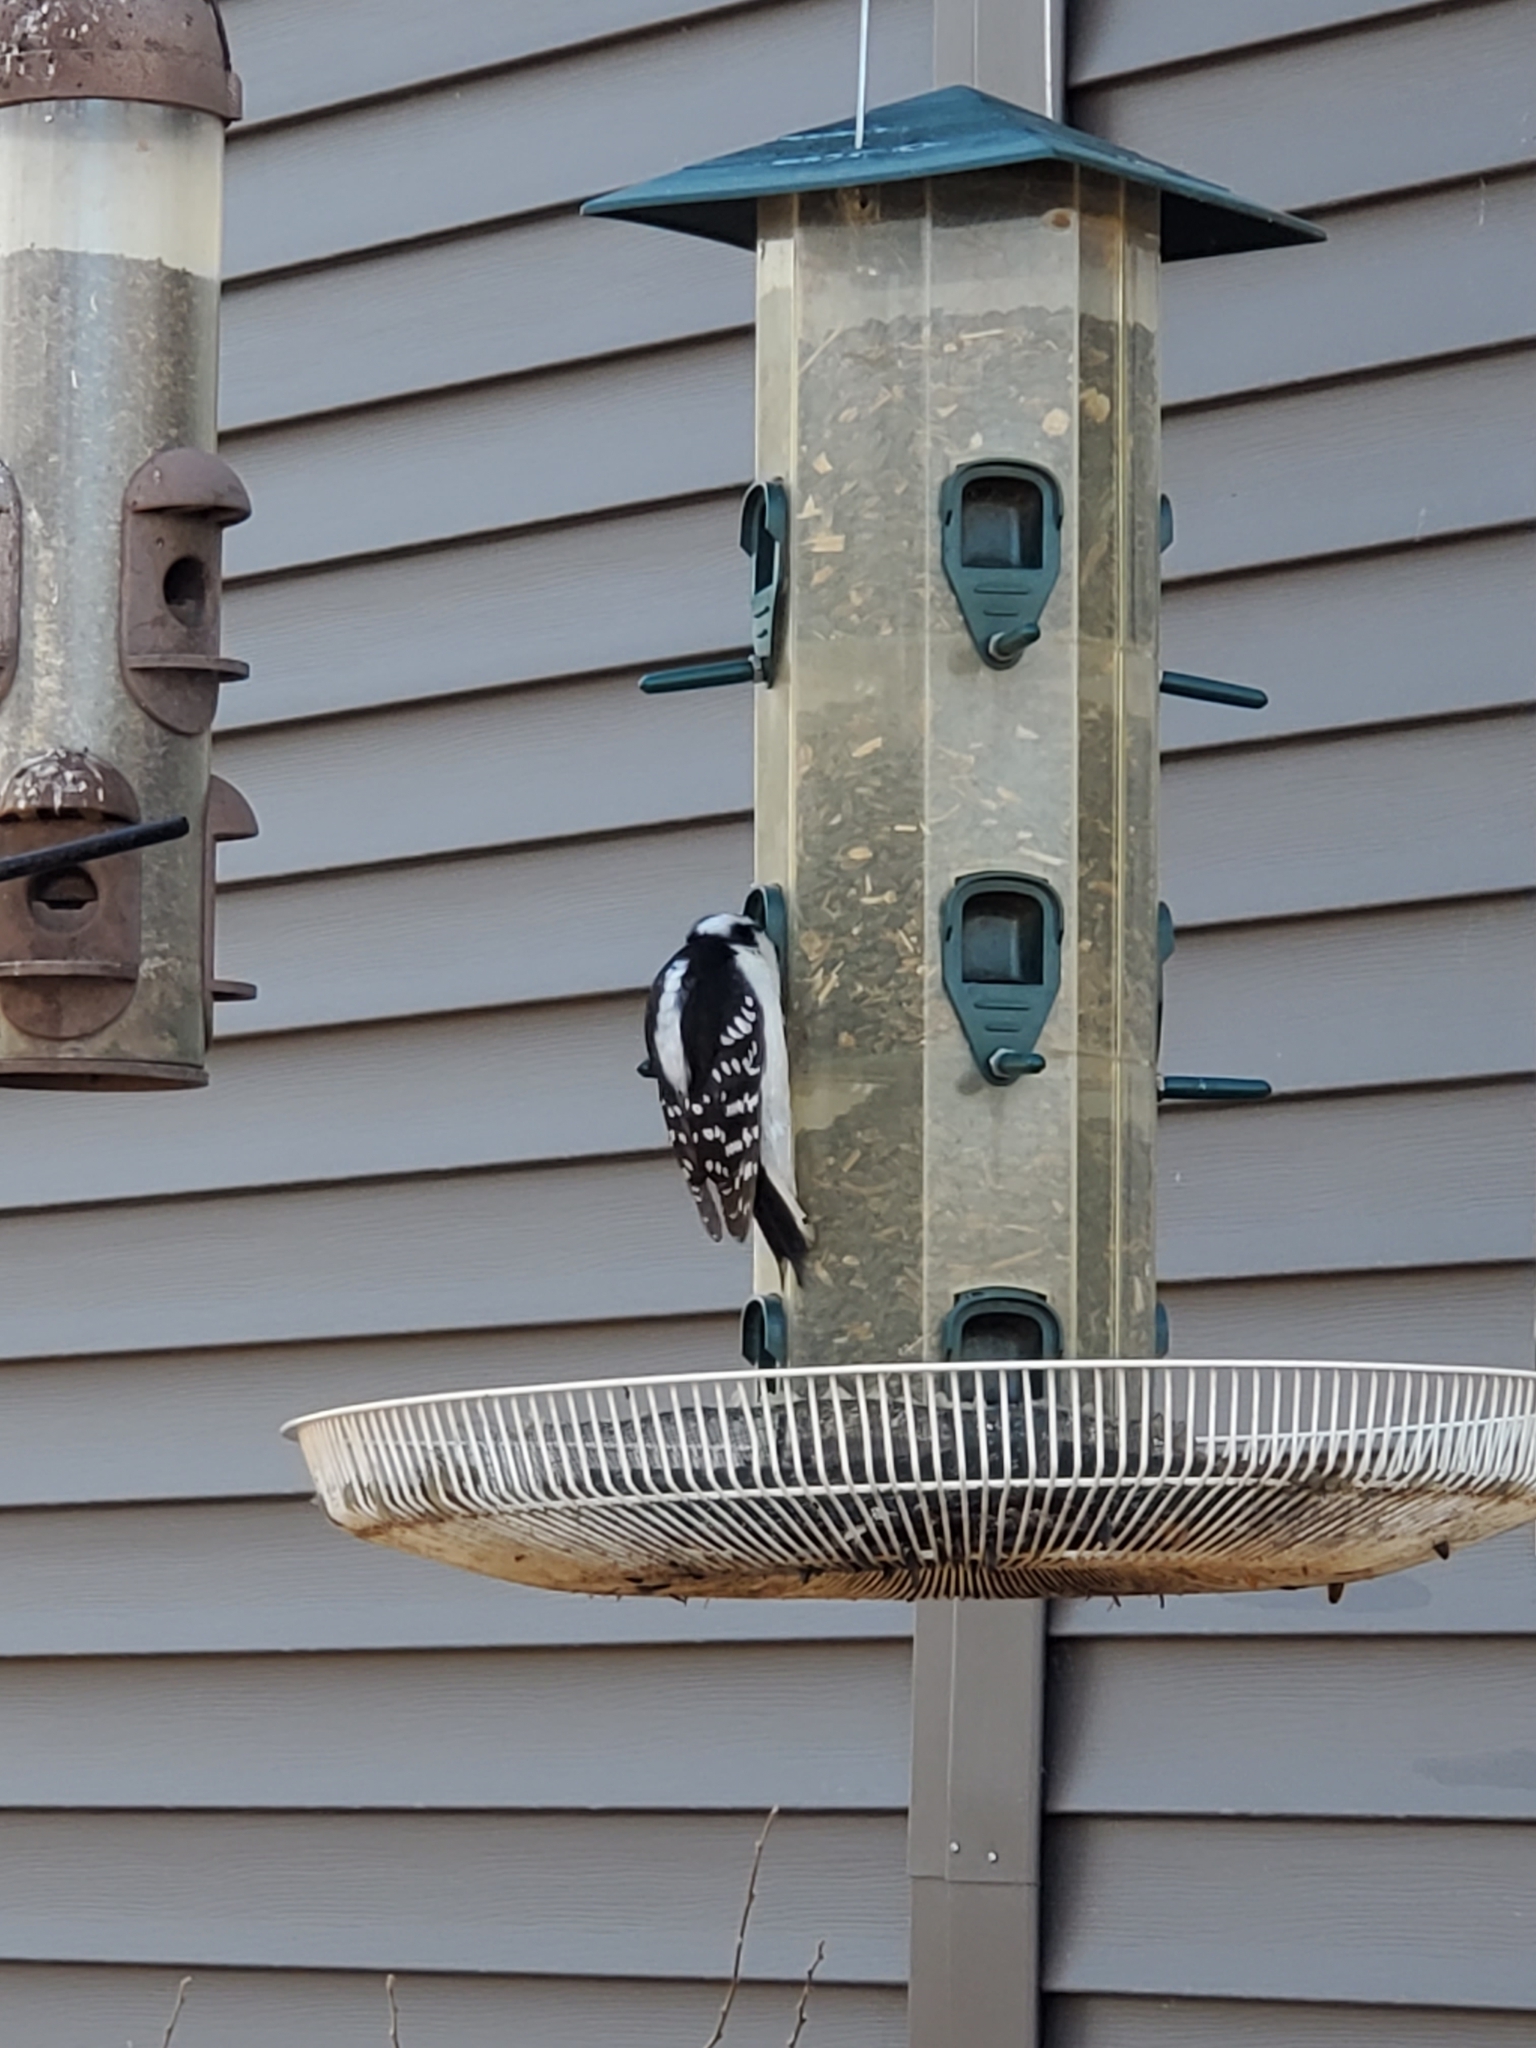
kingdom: Animalia
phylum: Chordata
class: Aves
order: Piciformes
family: Picidae
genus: Dryobates
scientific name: Dryobates pubescens
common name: Downy woodpecker
